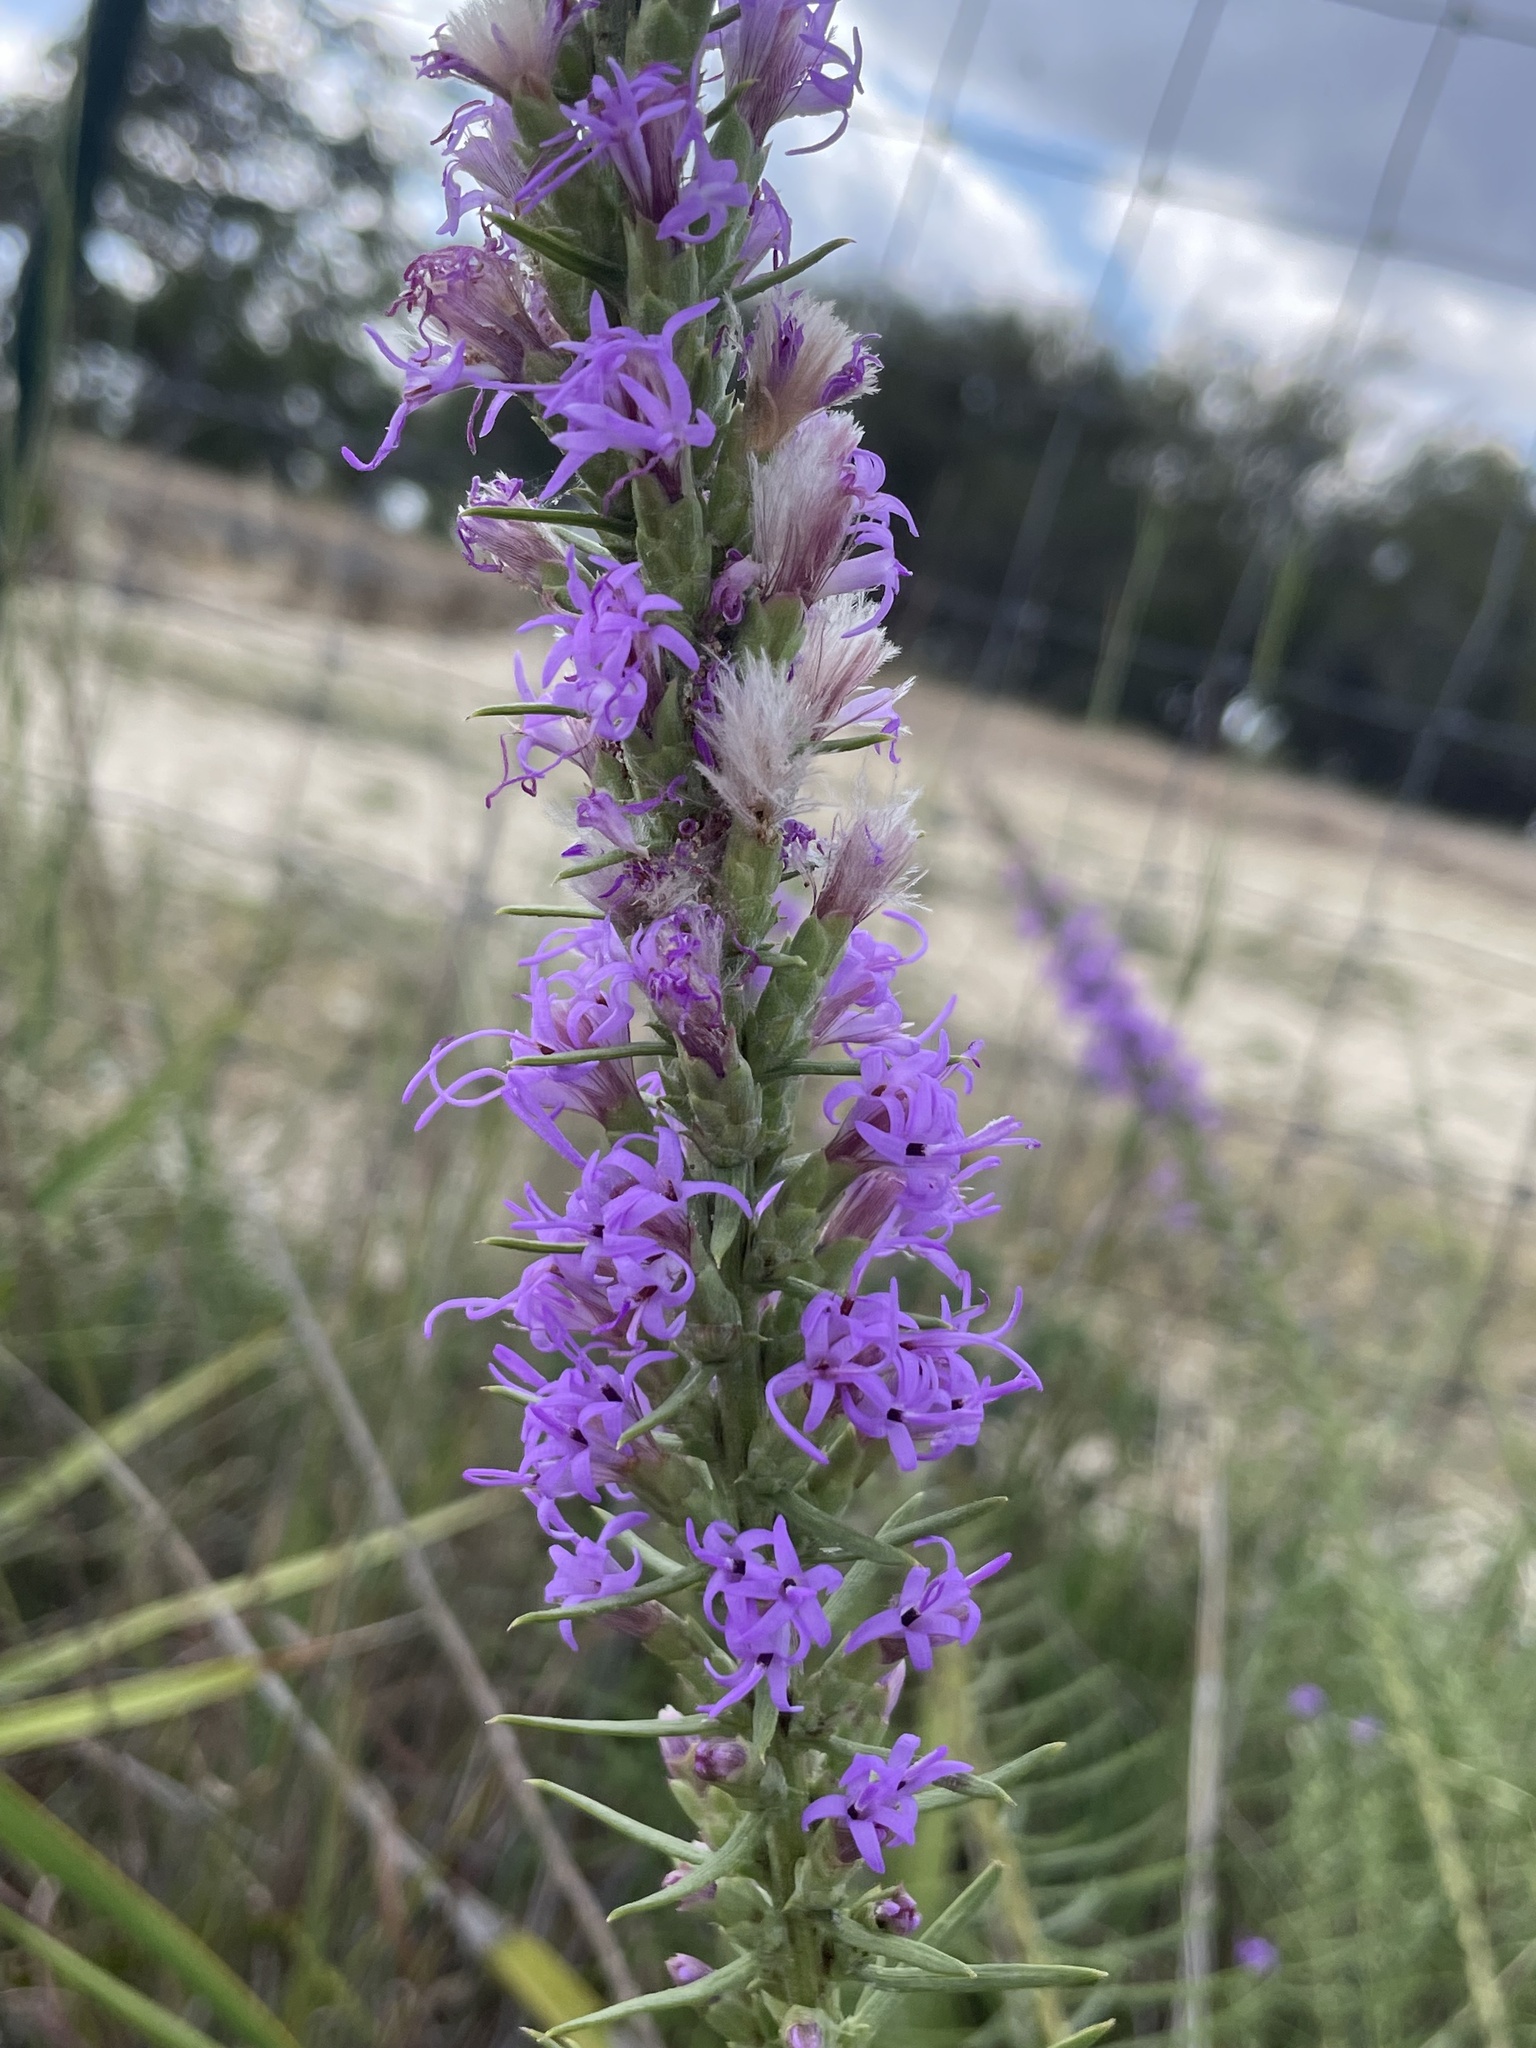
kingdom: Plantae
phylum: Tracheophyta
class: Magnoliopsida
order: Asterales
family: Asteraceae
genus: Liatris
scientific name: Liatris punctata
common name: Dotted gayfeather
